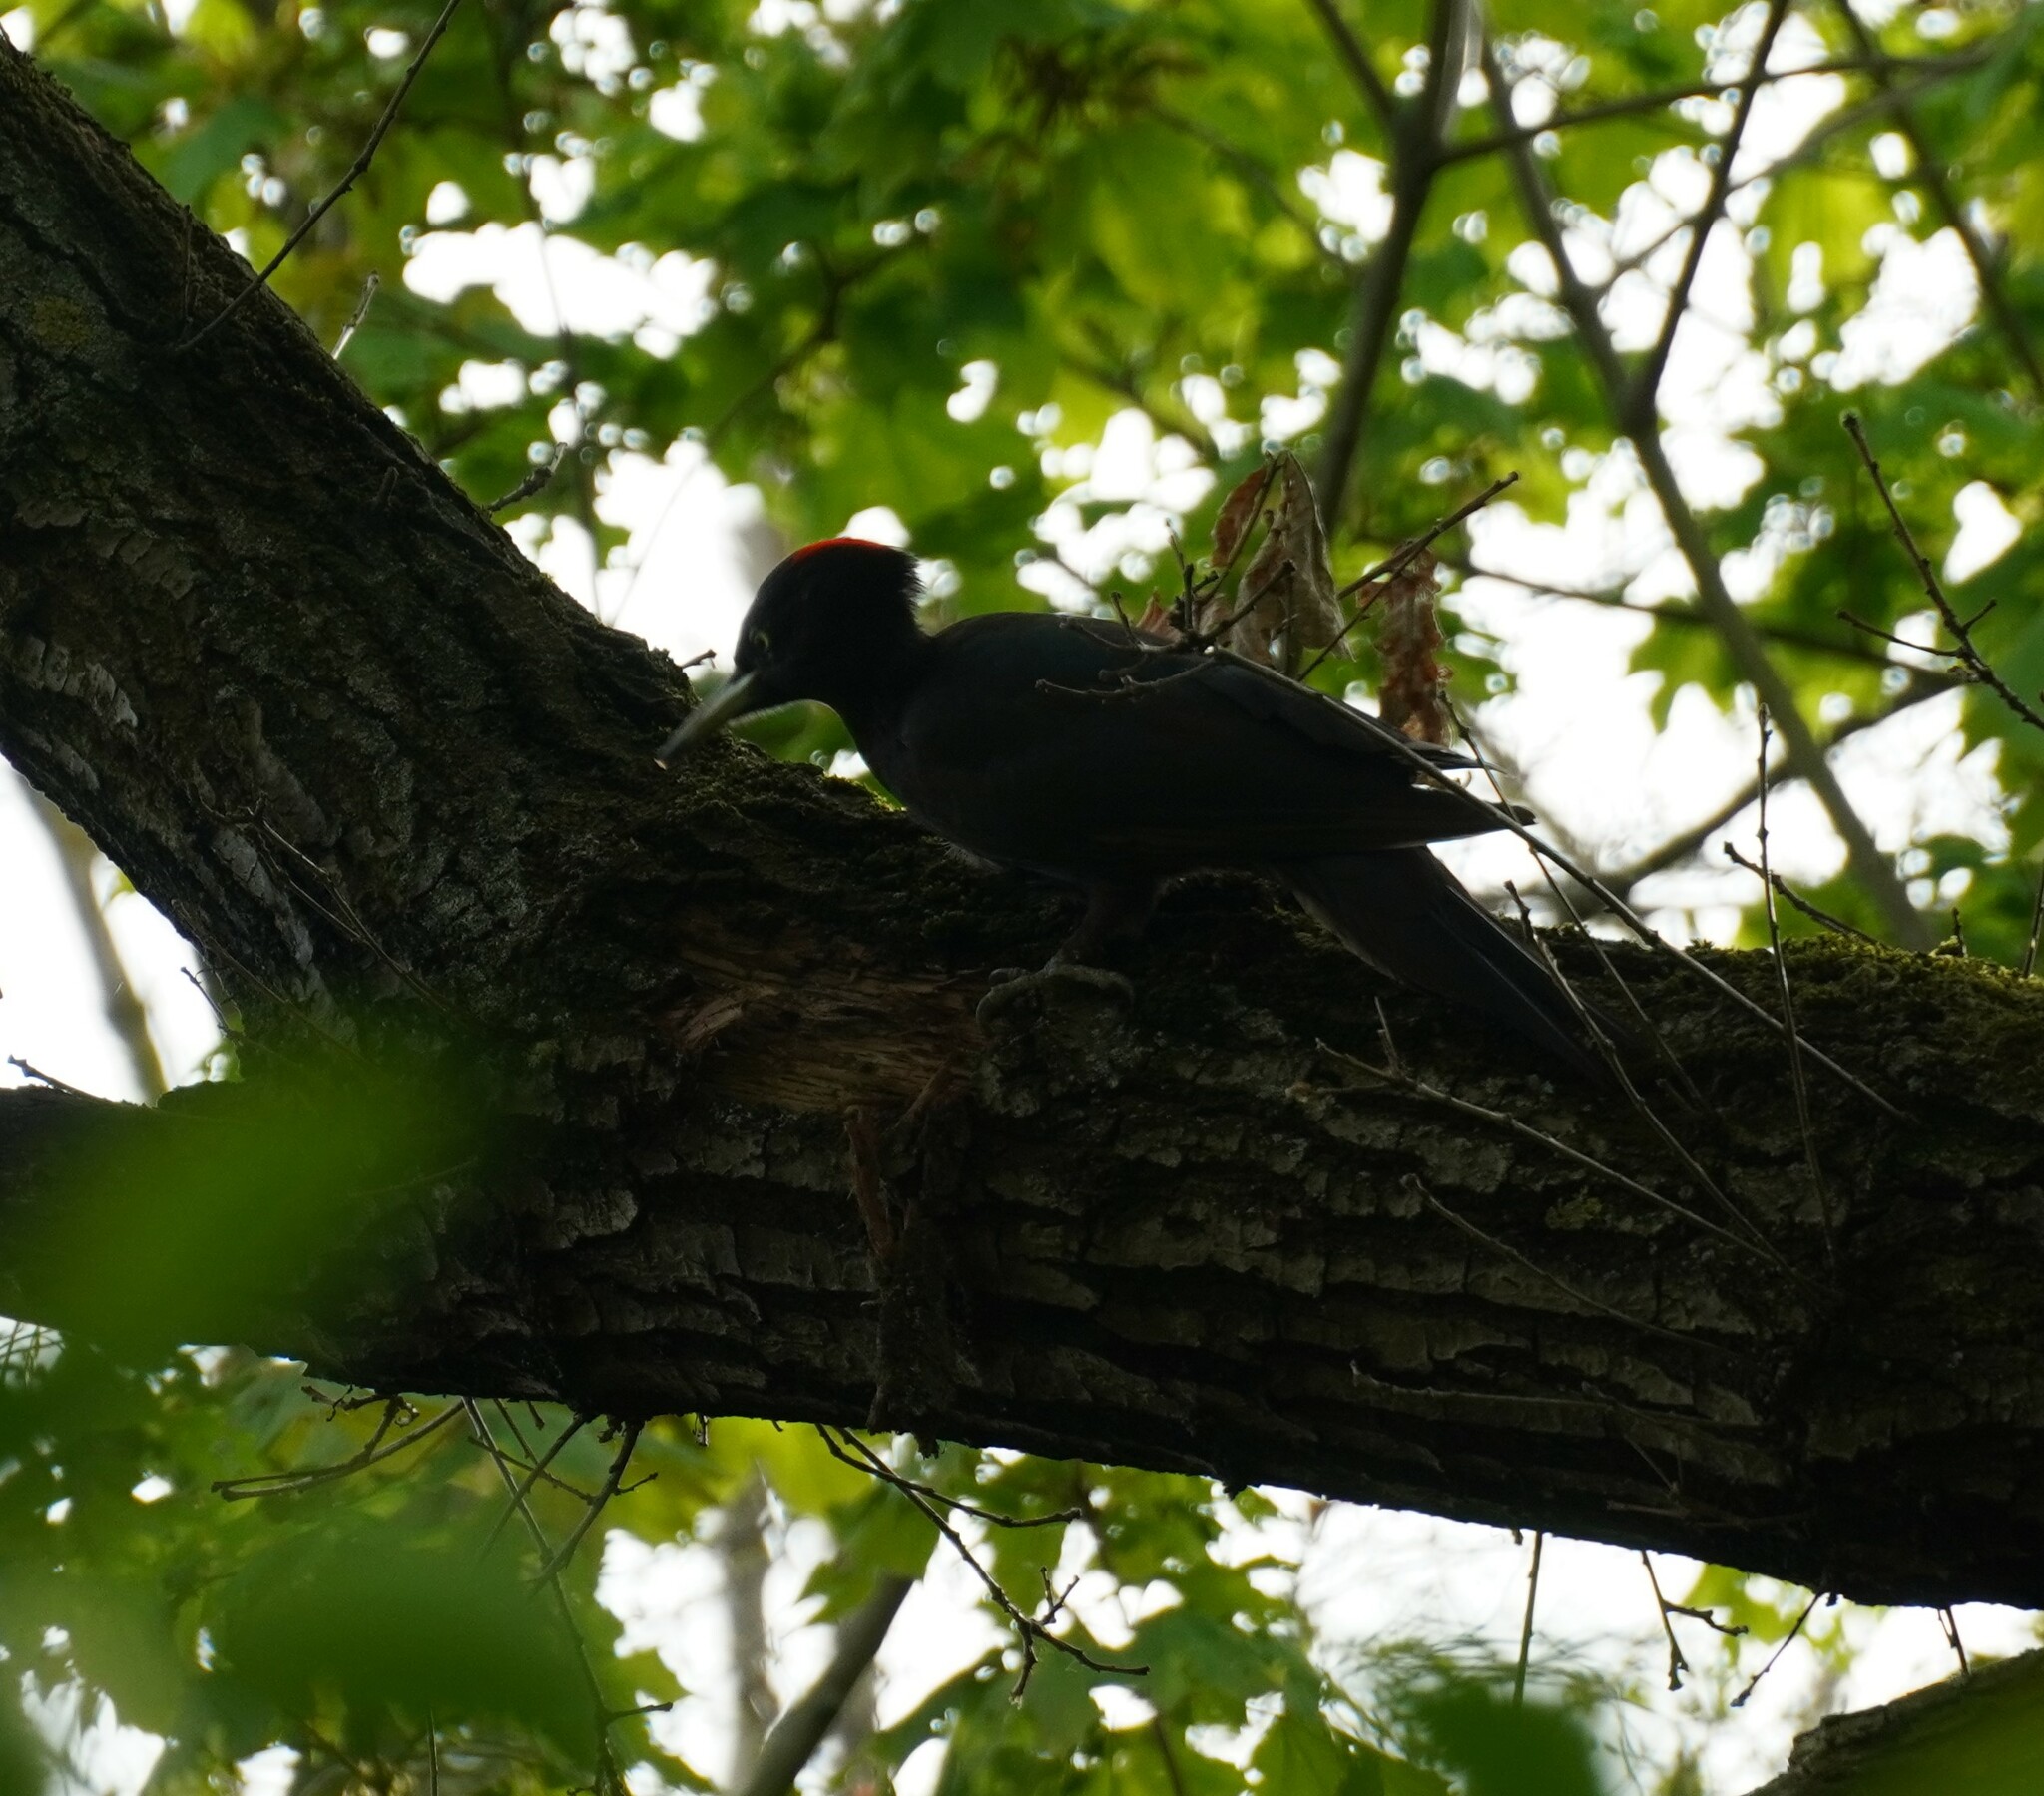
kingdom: Animalia
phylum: Chordata
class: Aves
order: Piciformes
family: Picidae
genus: Dryocopus
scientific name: Dryocopus martius
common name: Black woodpecker
